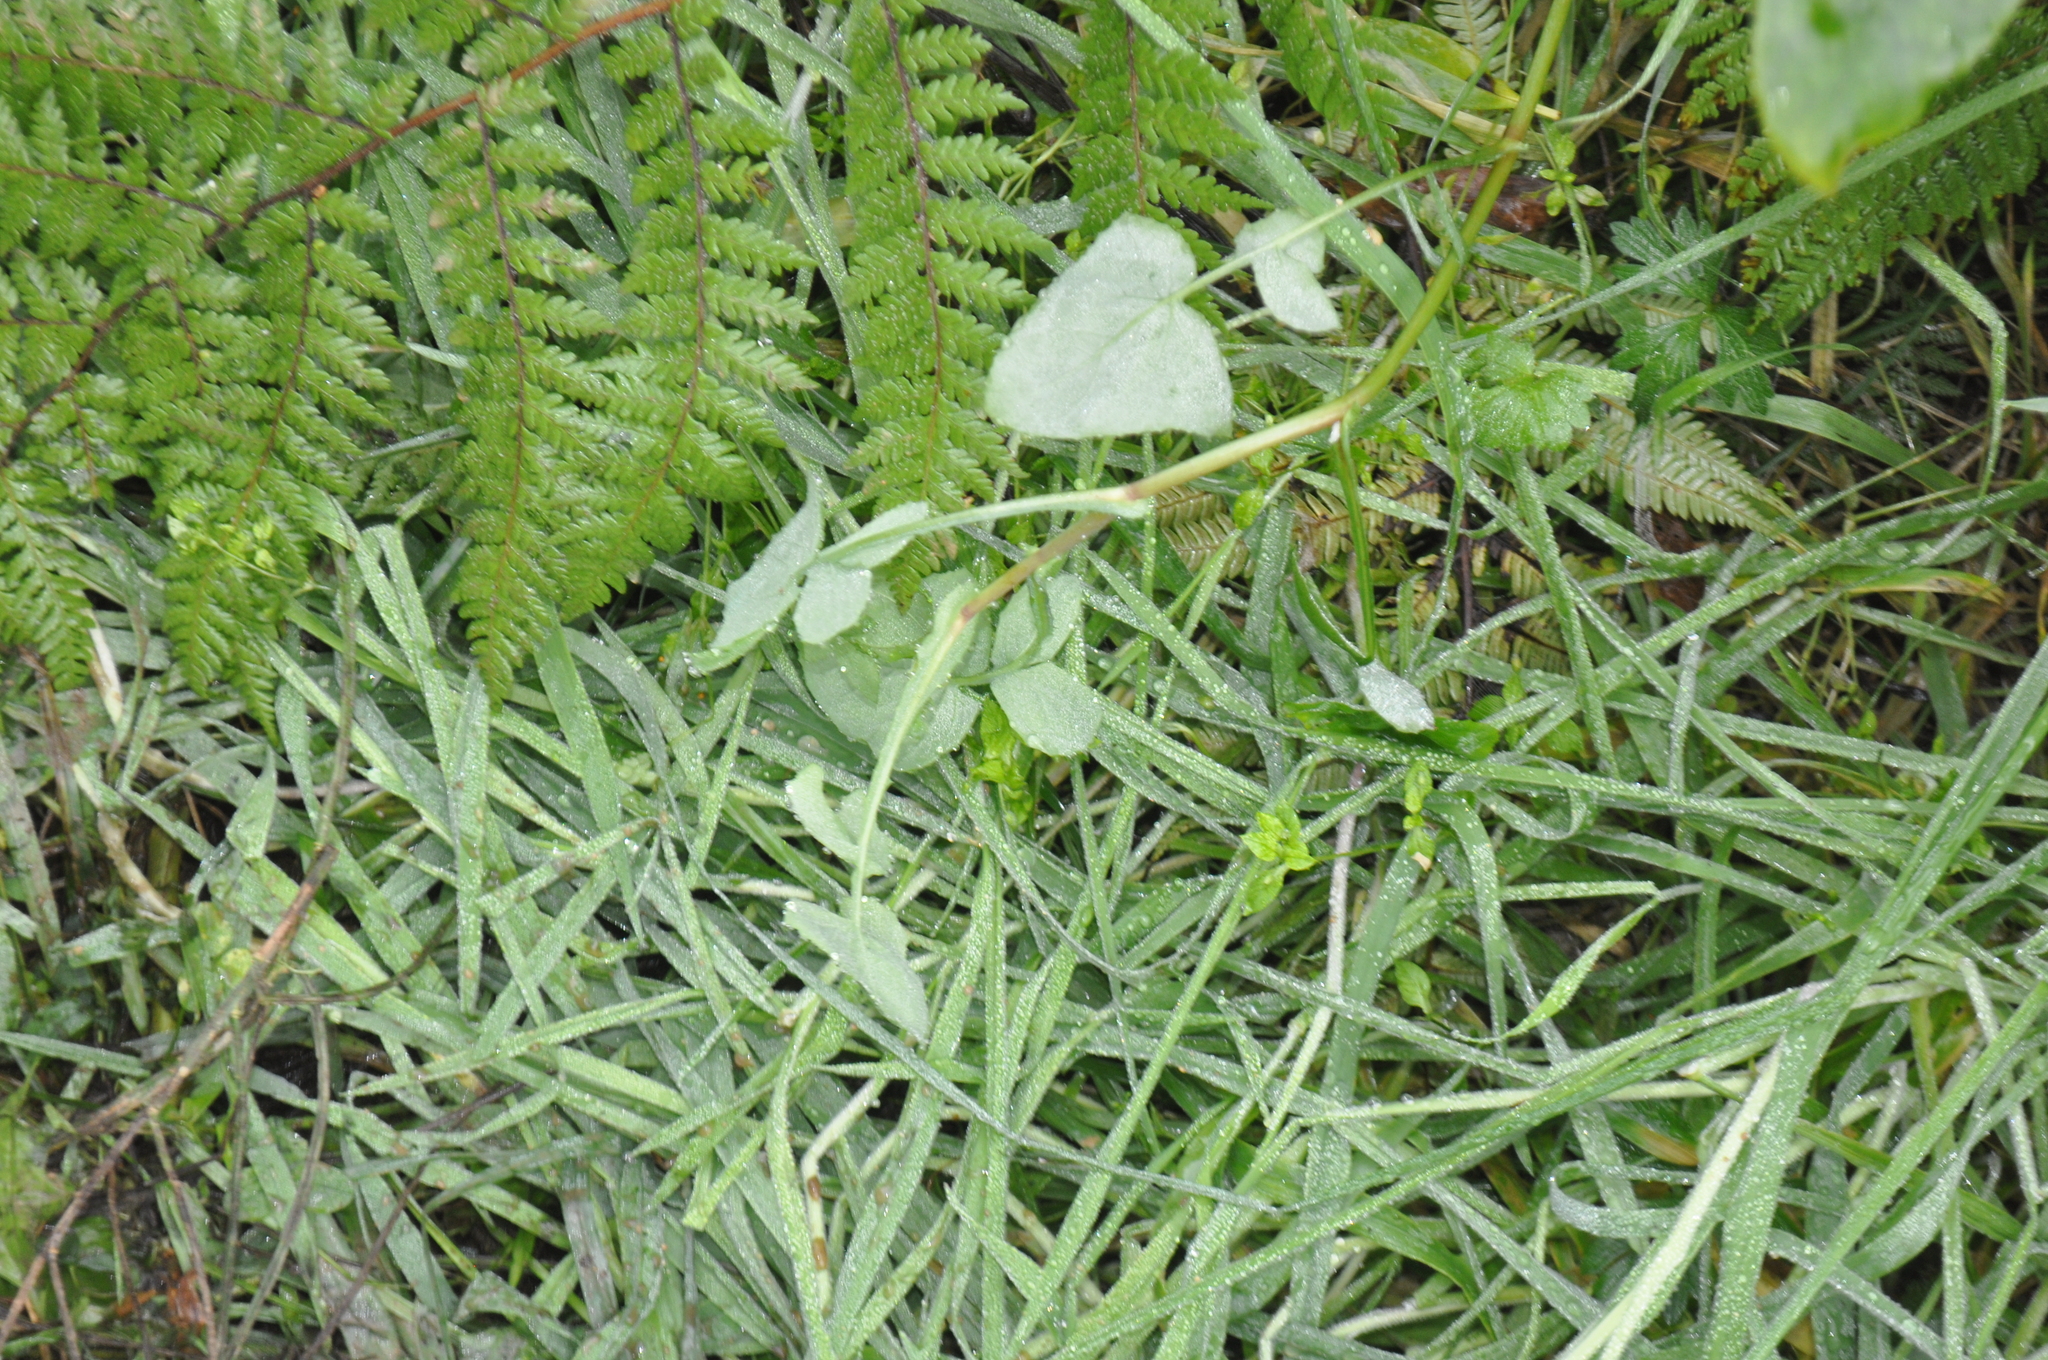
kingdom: Plantae
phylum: Tracheophyta
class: Magnoliopsida
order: Asterales
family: Asteraceae
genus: Sonchus
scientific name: Sonchus oleraceus
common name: Common sowthistle
